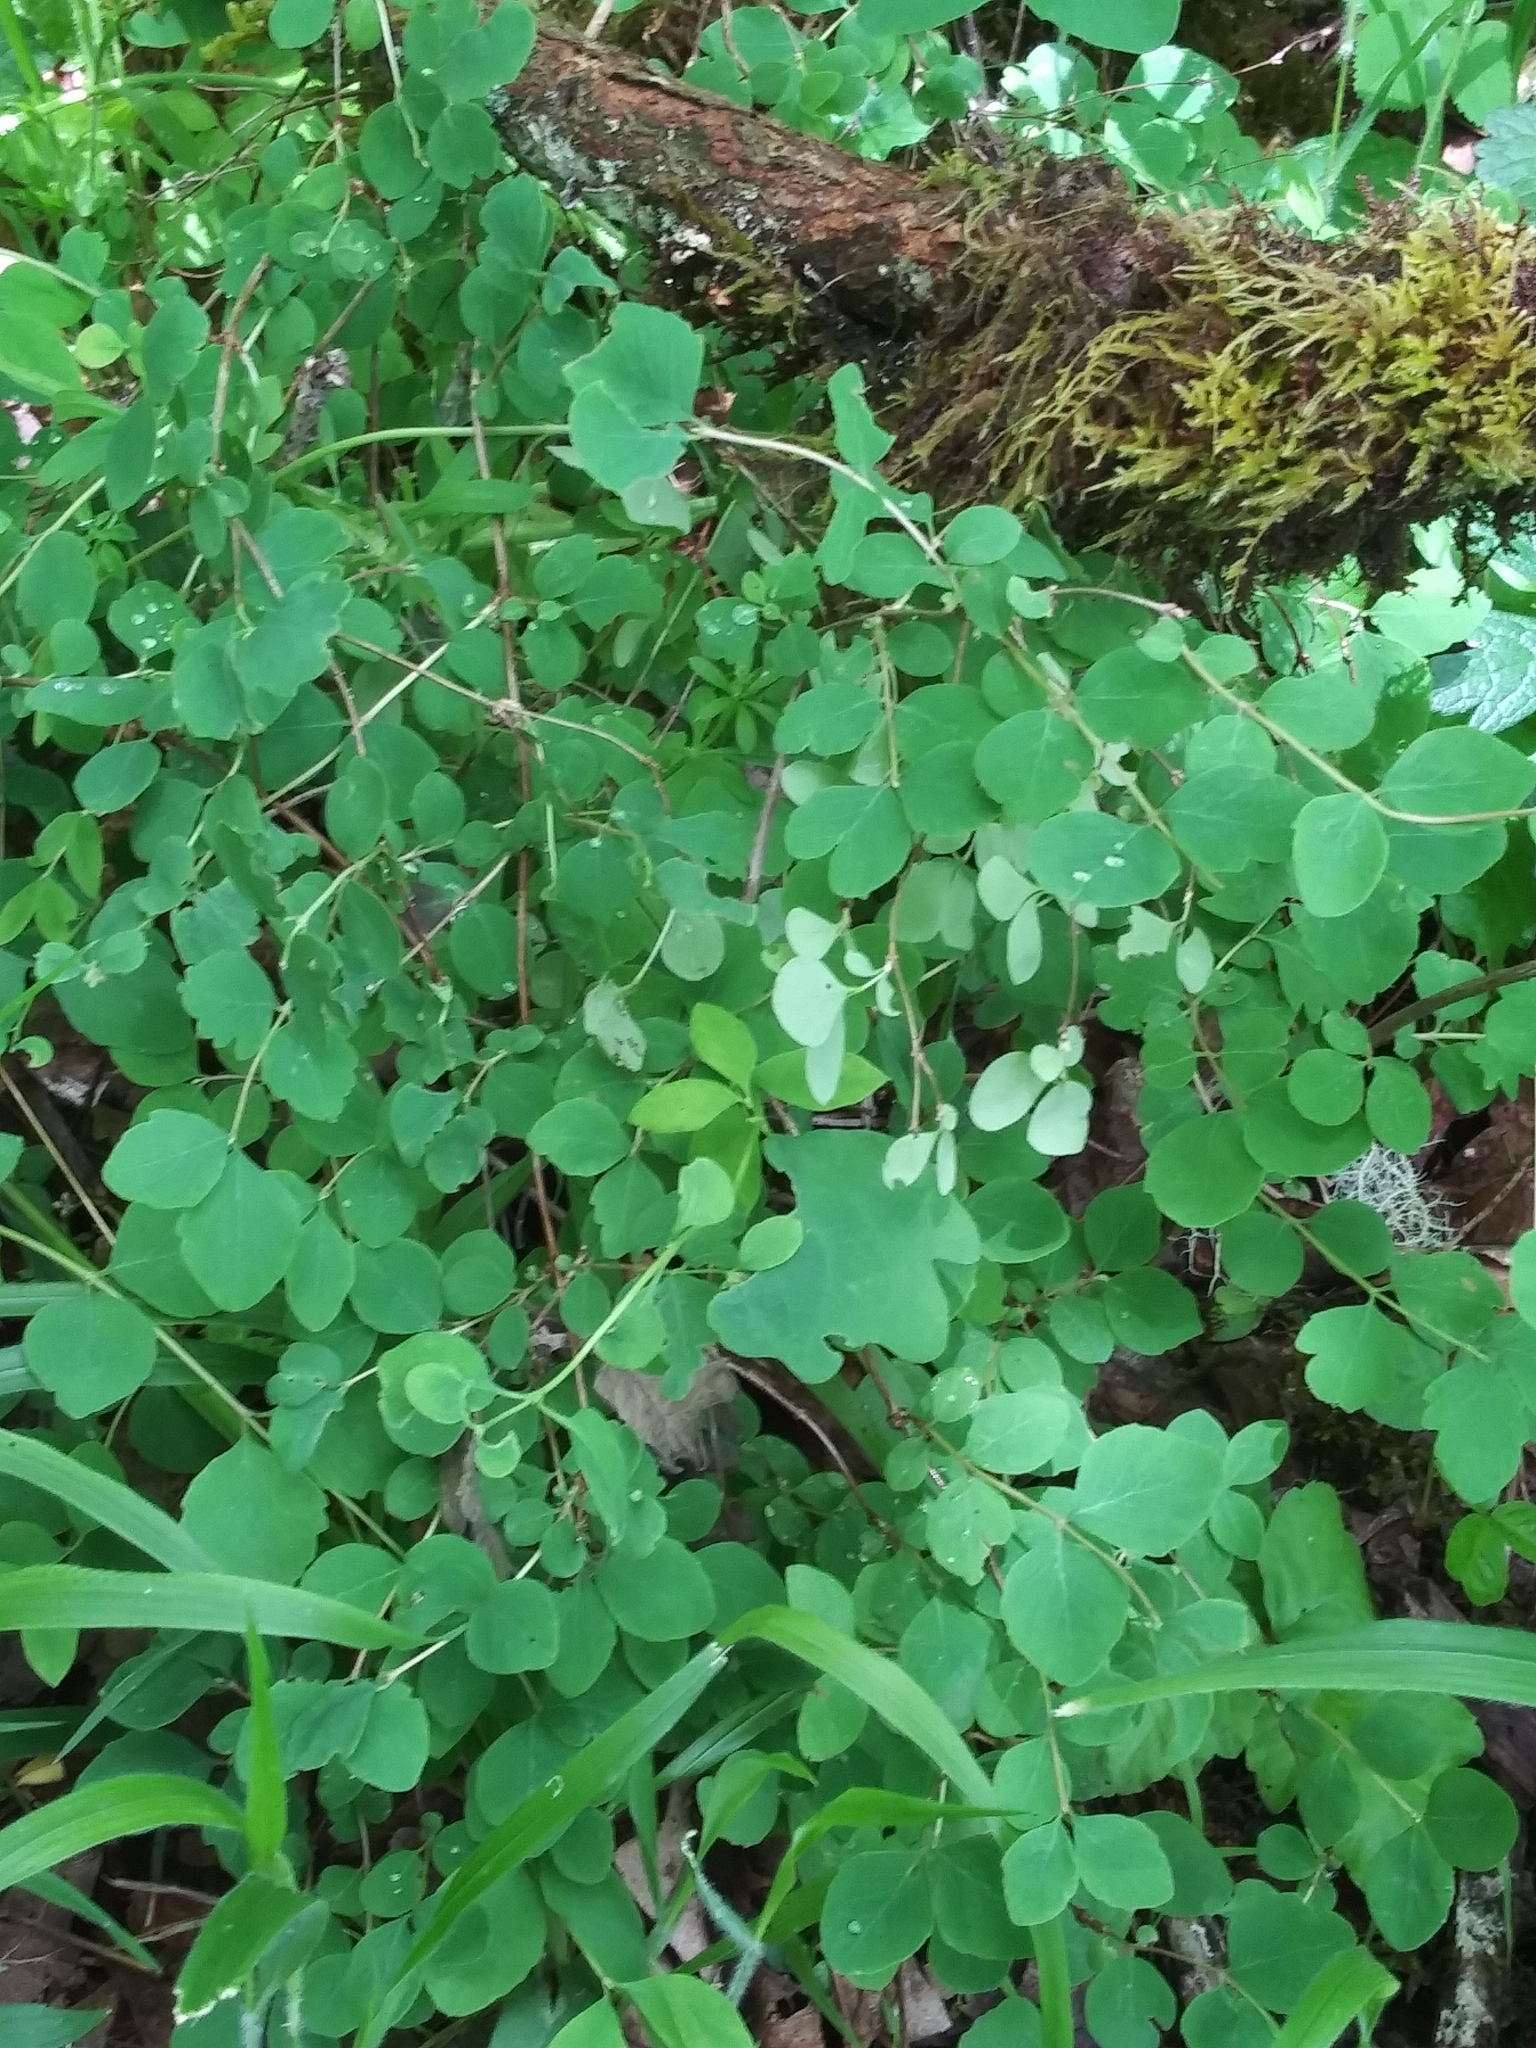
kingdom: Plantae
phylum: Tracheophyta
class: Magnoliopsida
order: Dipsacales
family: Caprifoliaceae
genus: Symphoricarpos
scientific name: Symphoricarpos albus
